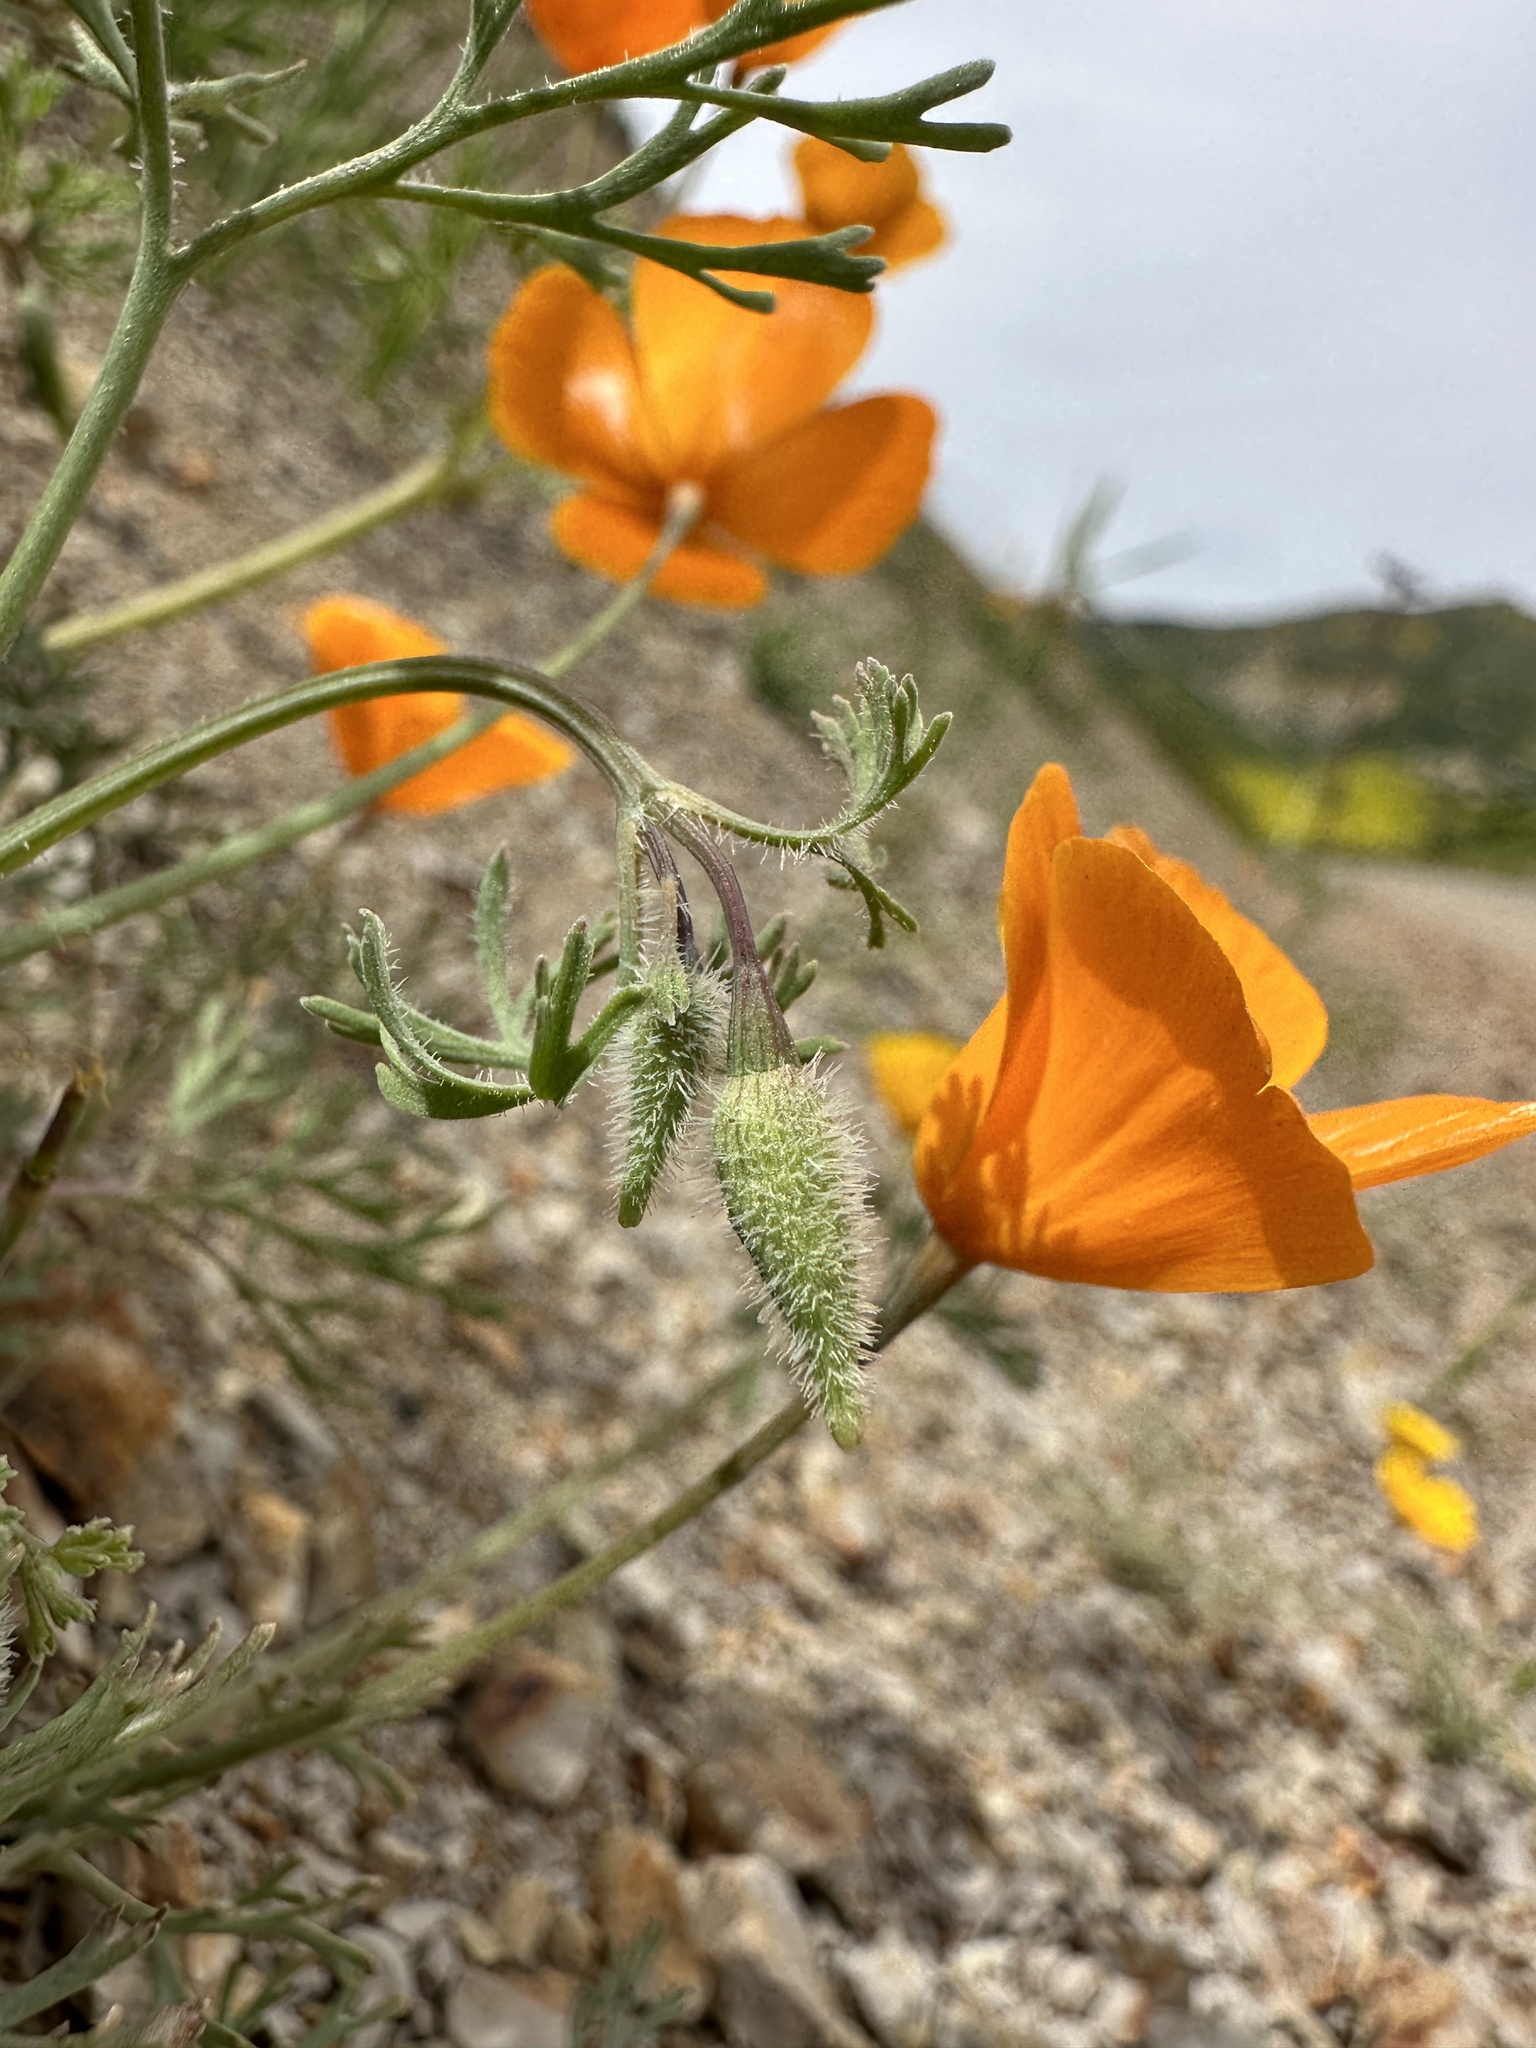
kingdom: Plantae
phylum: Tracheophyta
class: Magnoliopsida
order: Ranunculales
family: Papaveraceae
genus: Eschscholzia
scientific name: Eschscholzia hypecoides
